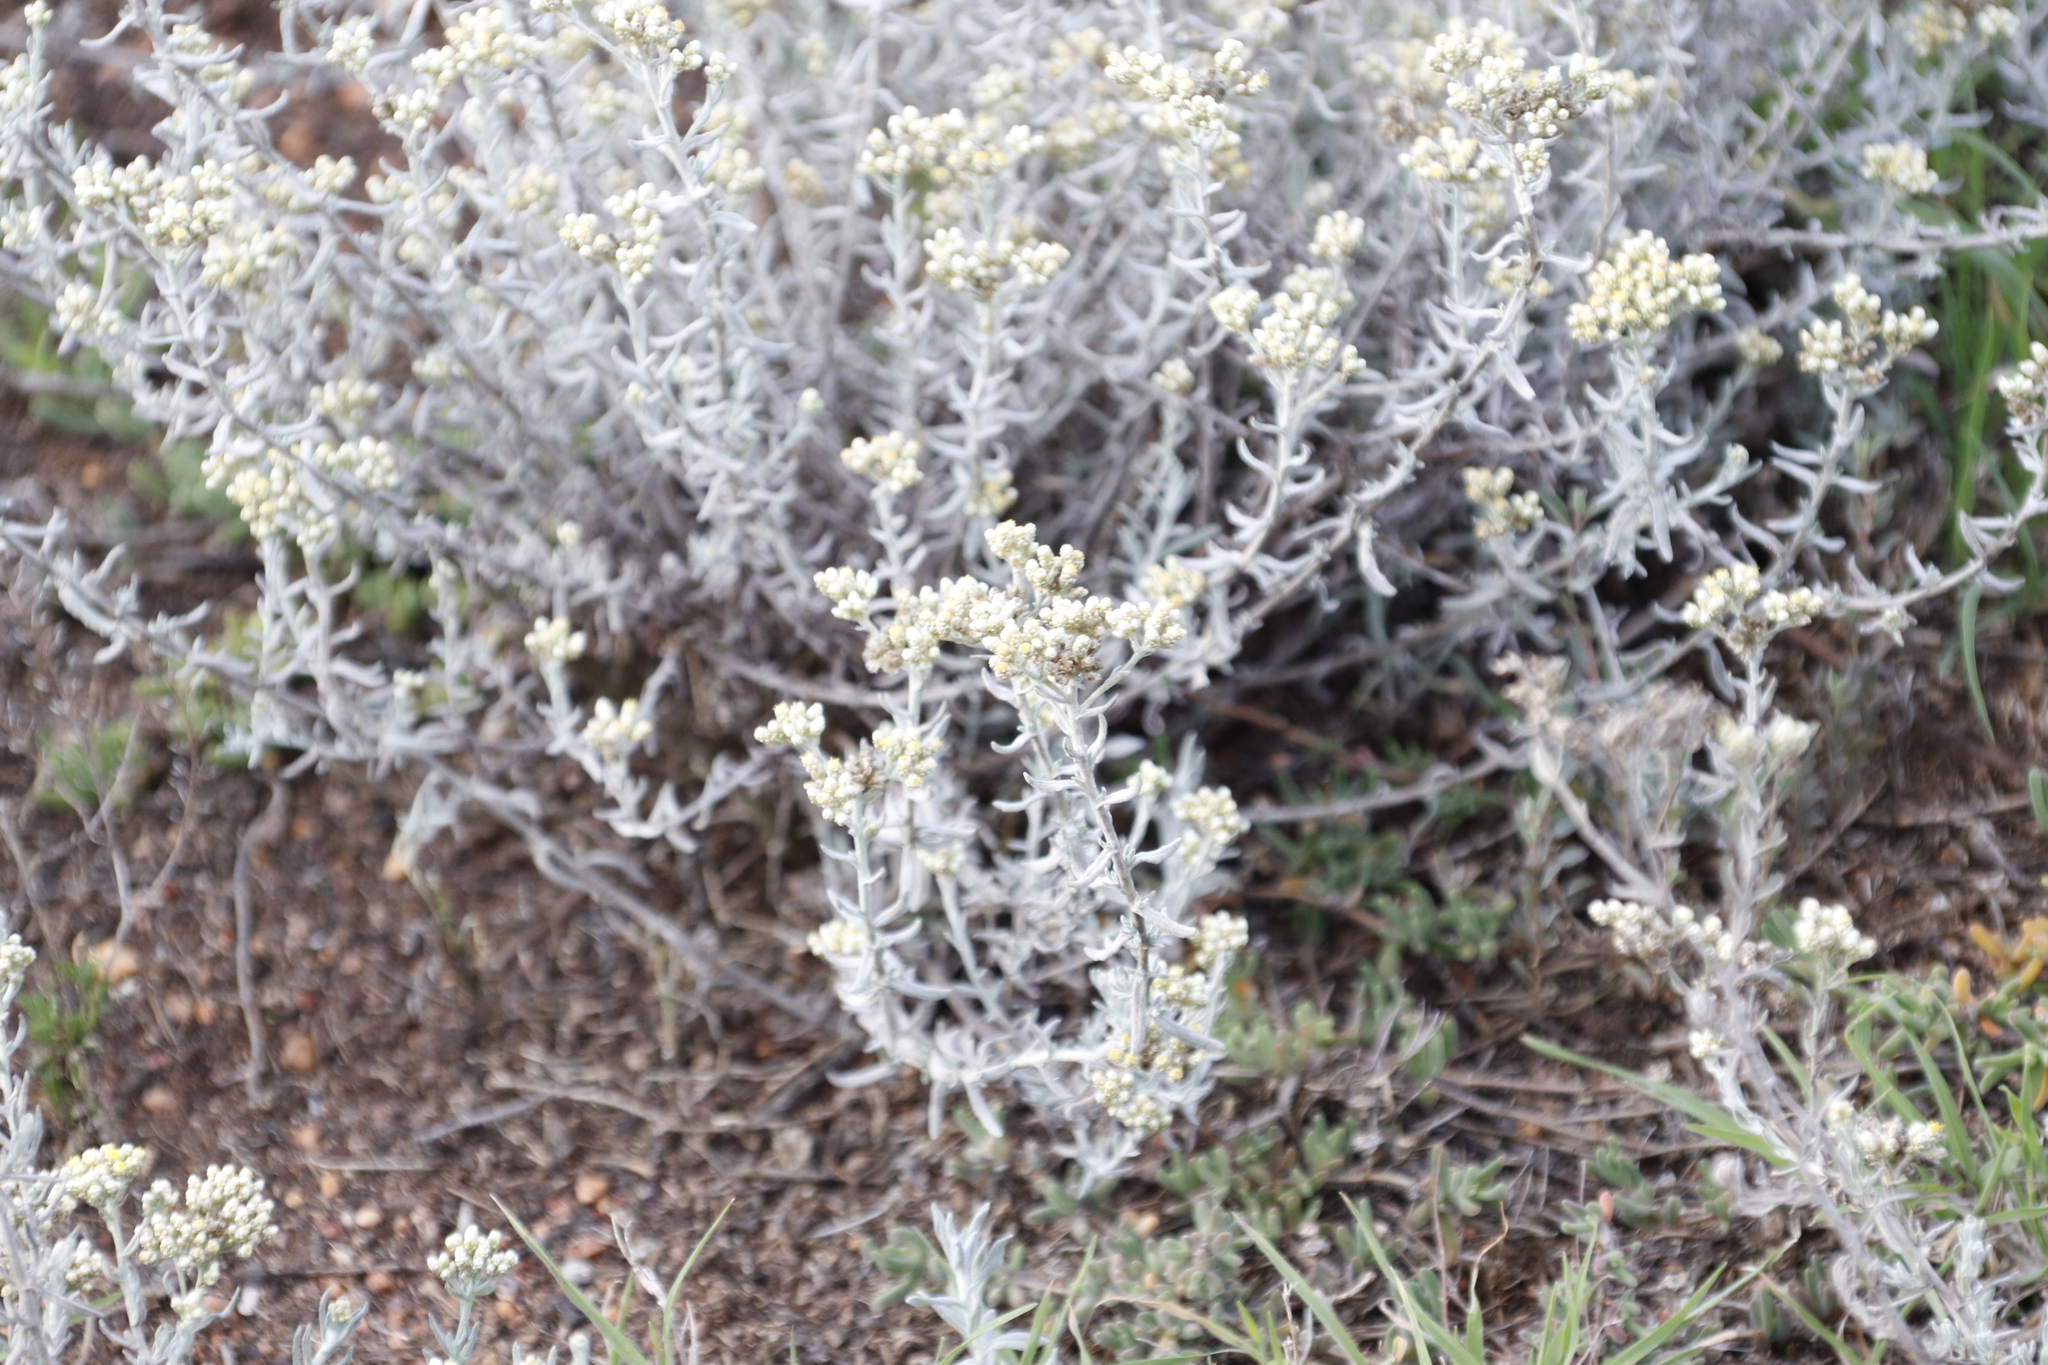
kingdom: Plantae
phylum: Tracheophyta
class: Magnoliopsida
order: Asterales
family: Asteraceae
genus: Helichrysum
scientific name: Helichrysum rosum
